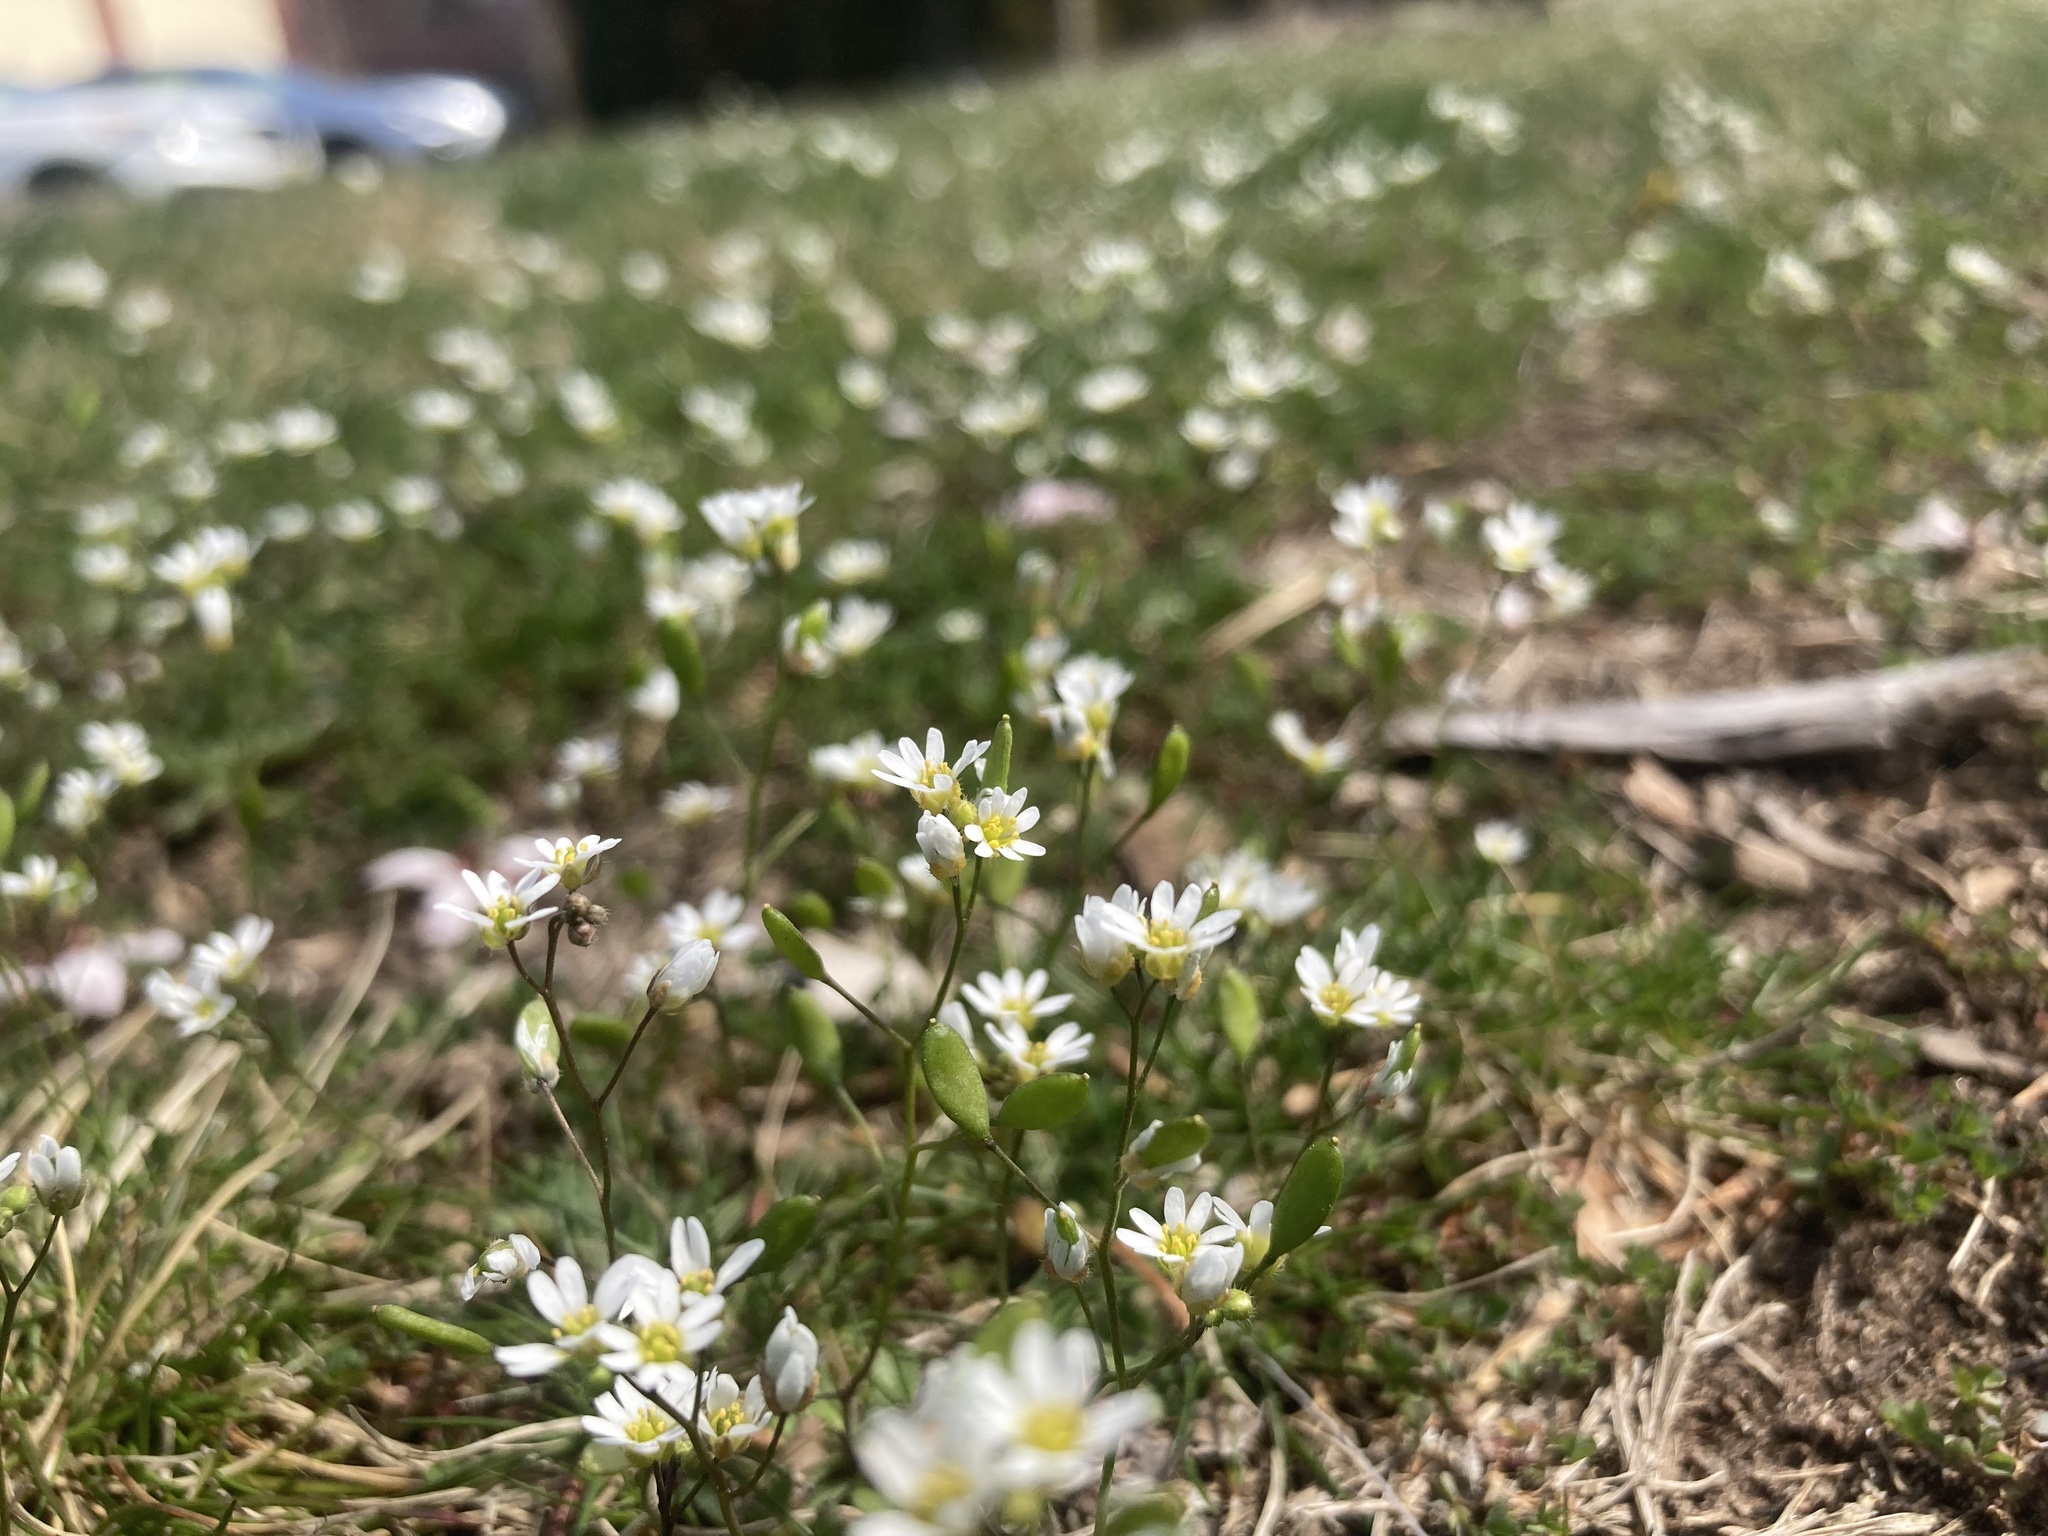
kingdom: Plantae
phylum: Tracheophyta
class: Magnoliopsida
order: Brassicales
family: Brassicaceae
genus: Draba
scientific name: Draba verna
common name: Spring draba
